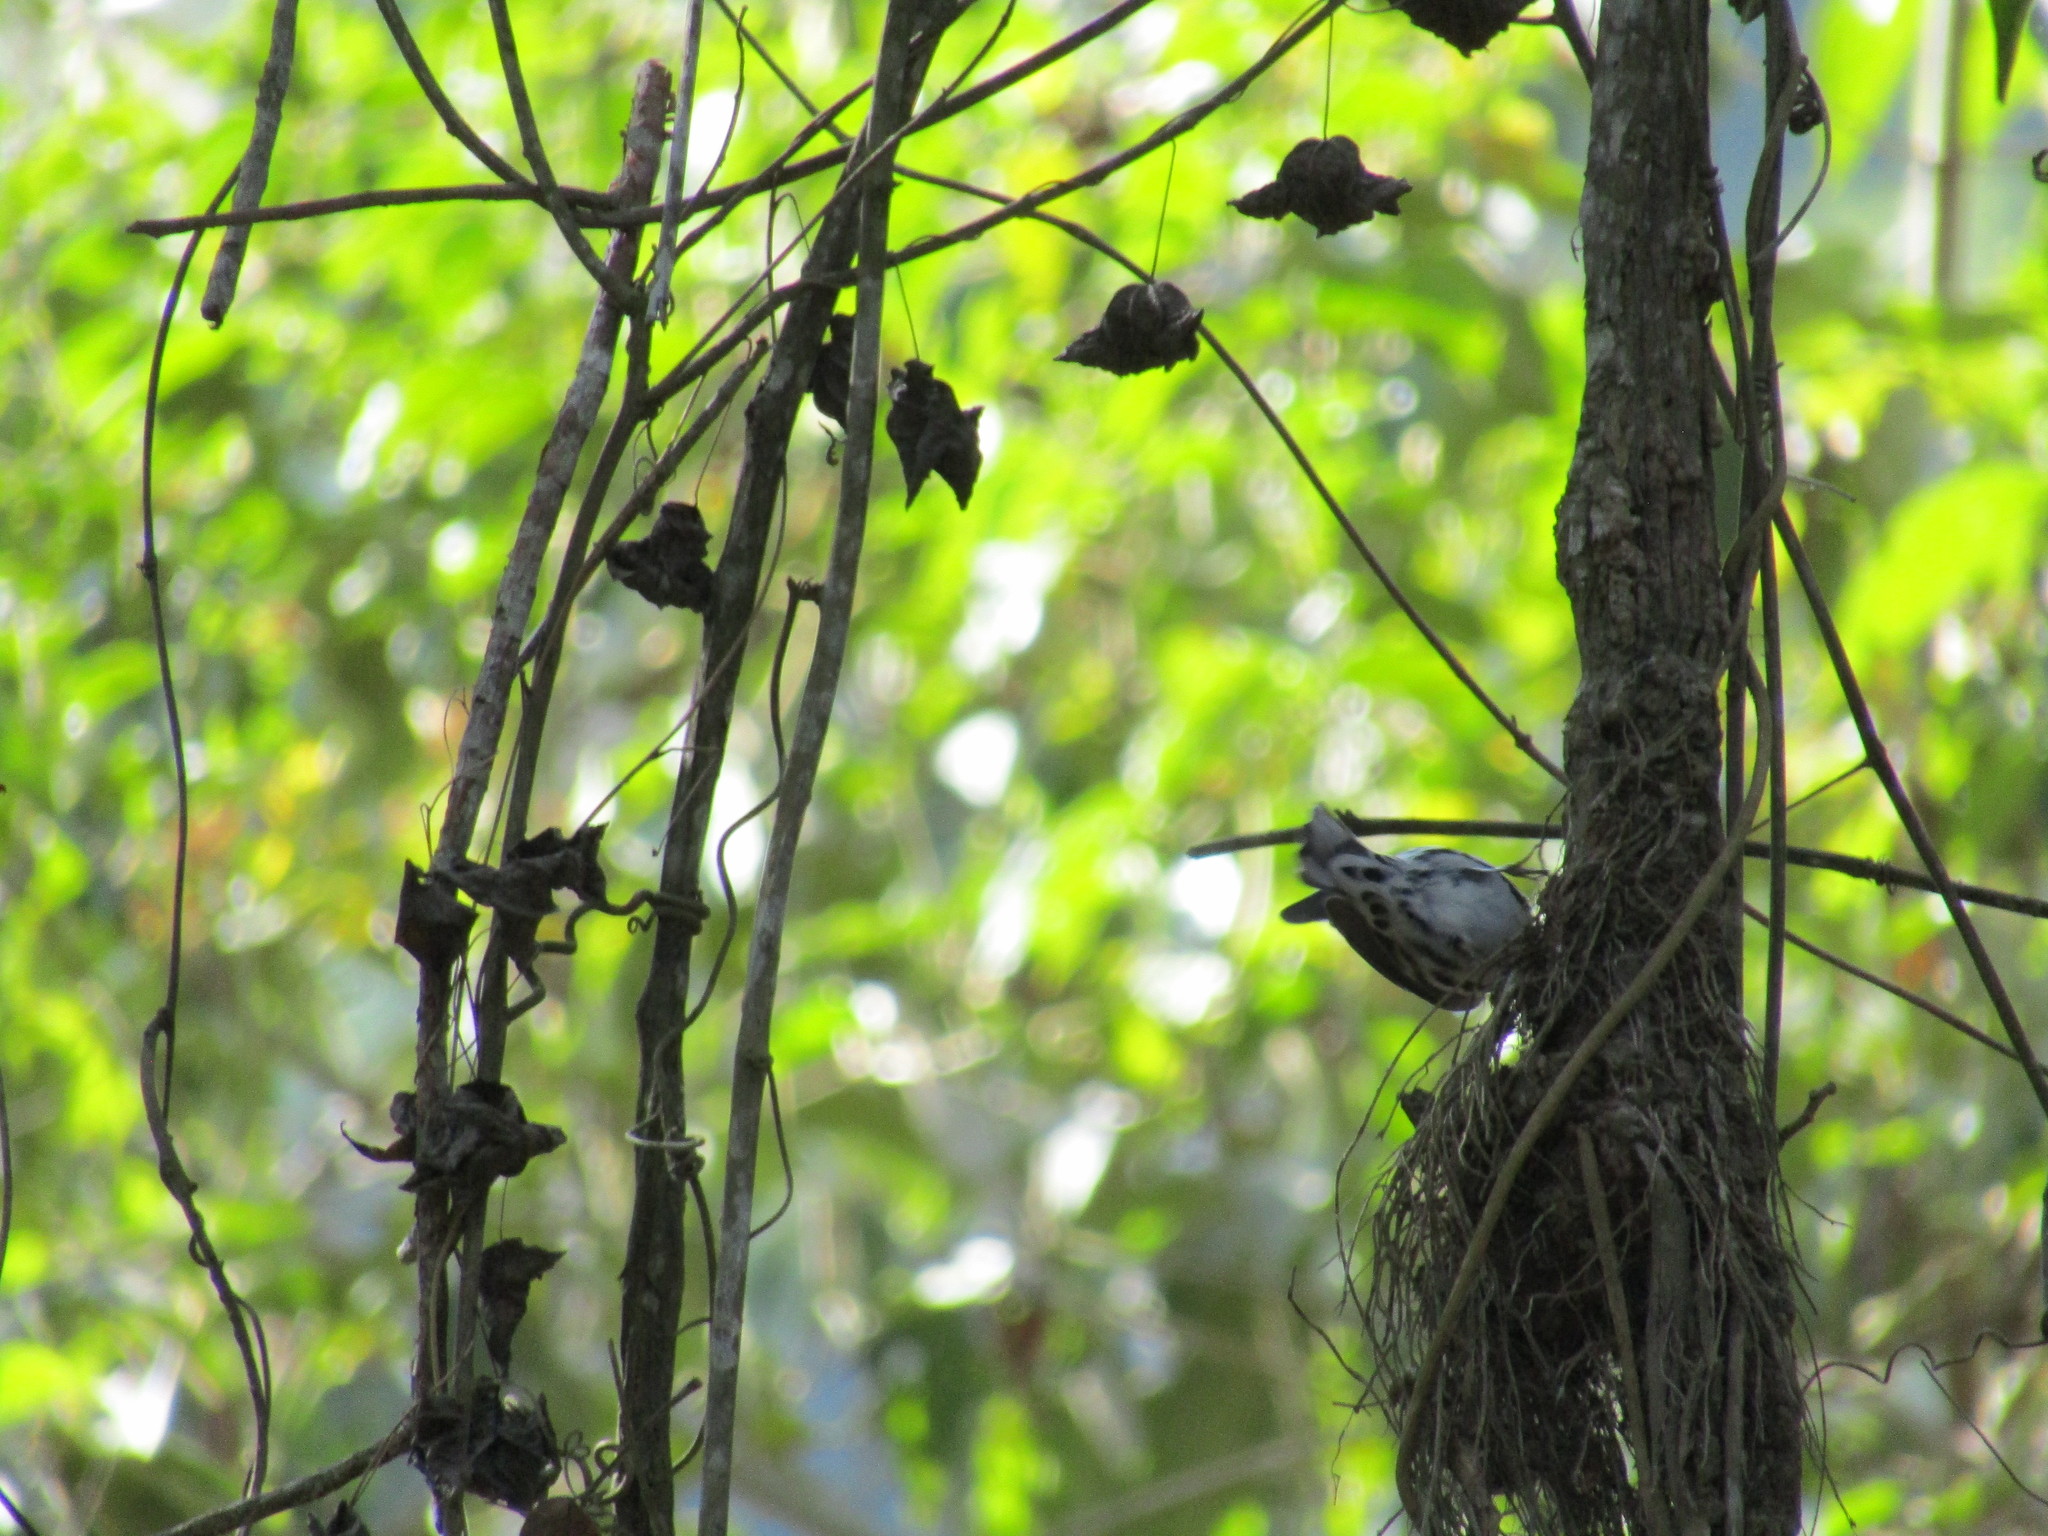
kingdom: Animalia
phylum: Chordata
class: Aves
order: Passeriformes
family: Parulidae
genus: Mniotilta
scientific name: Mniotilta varia
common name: Black-and-white warbler
